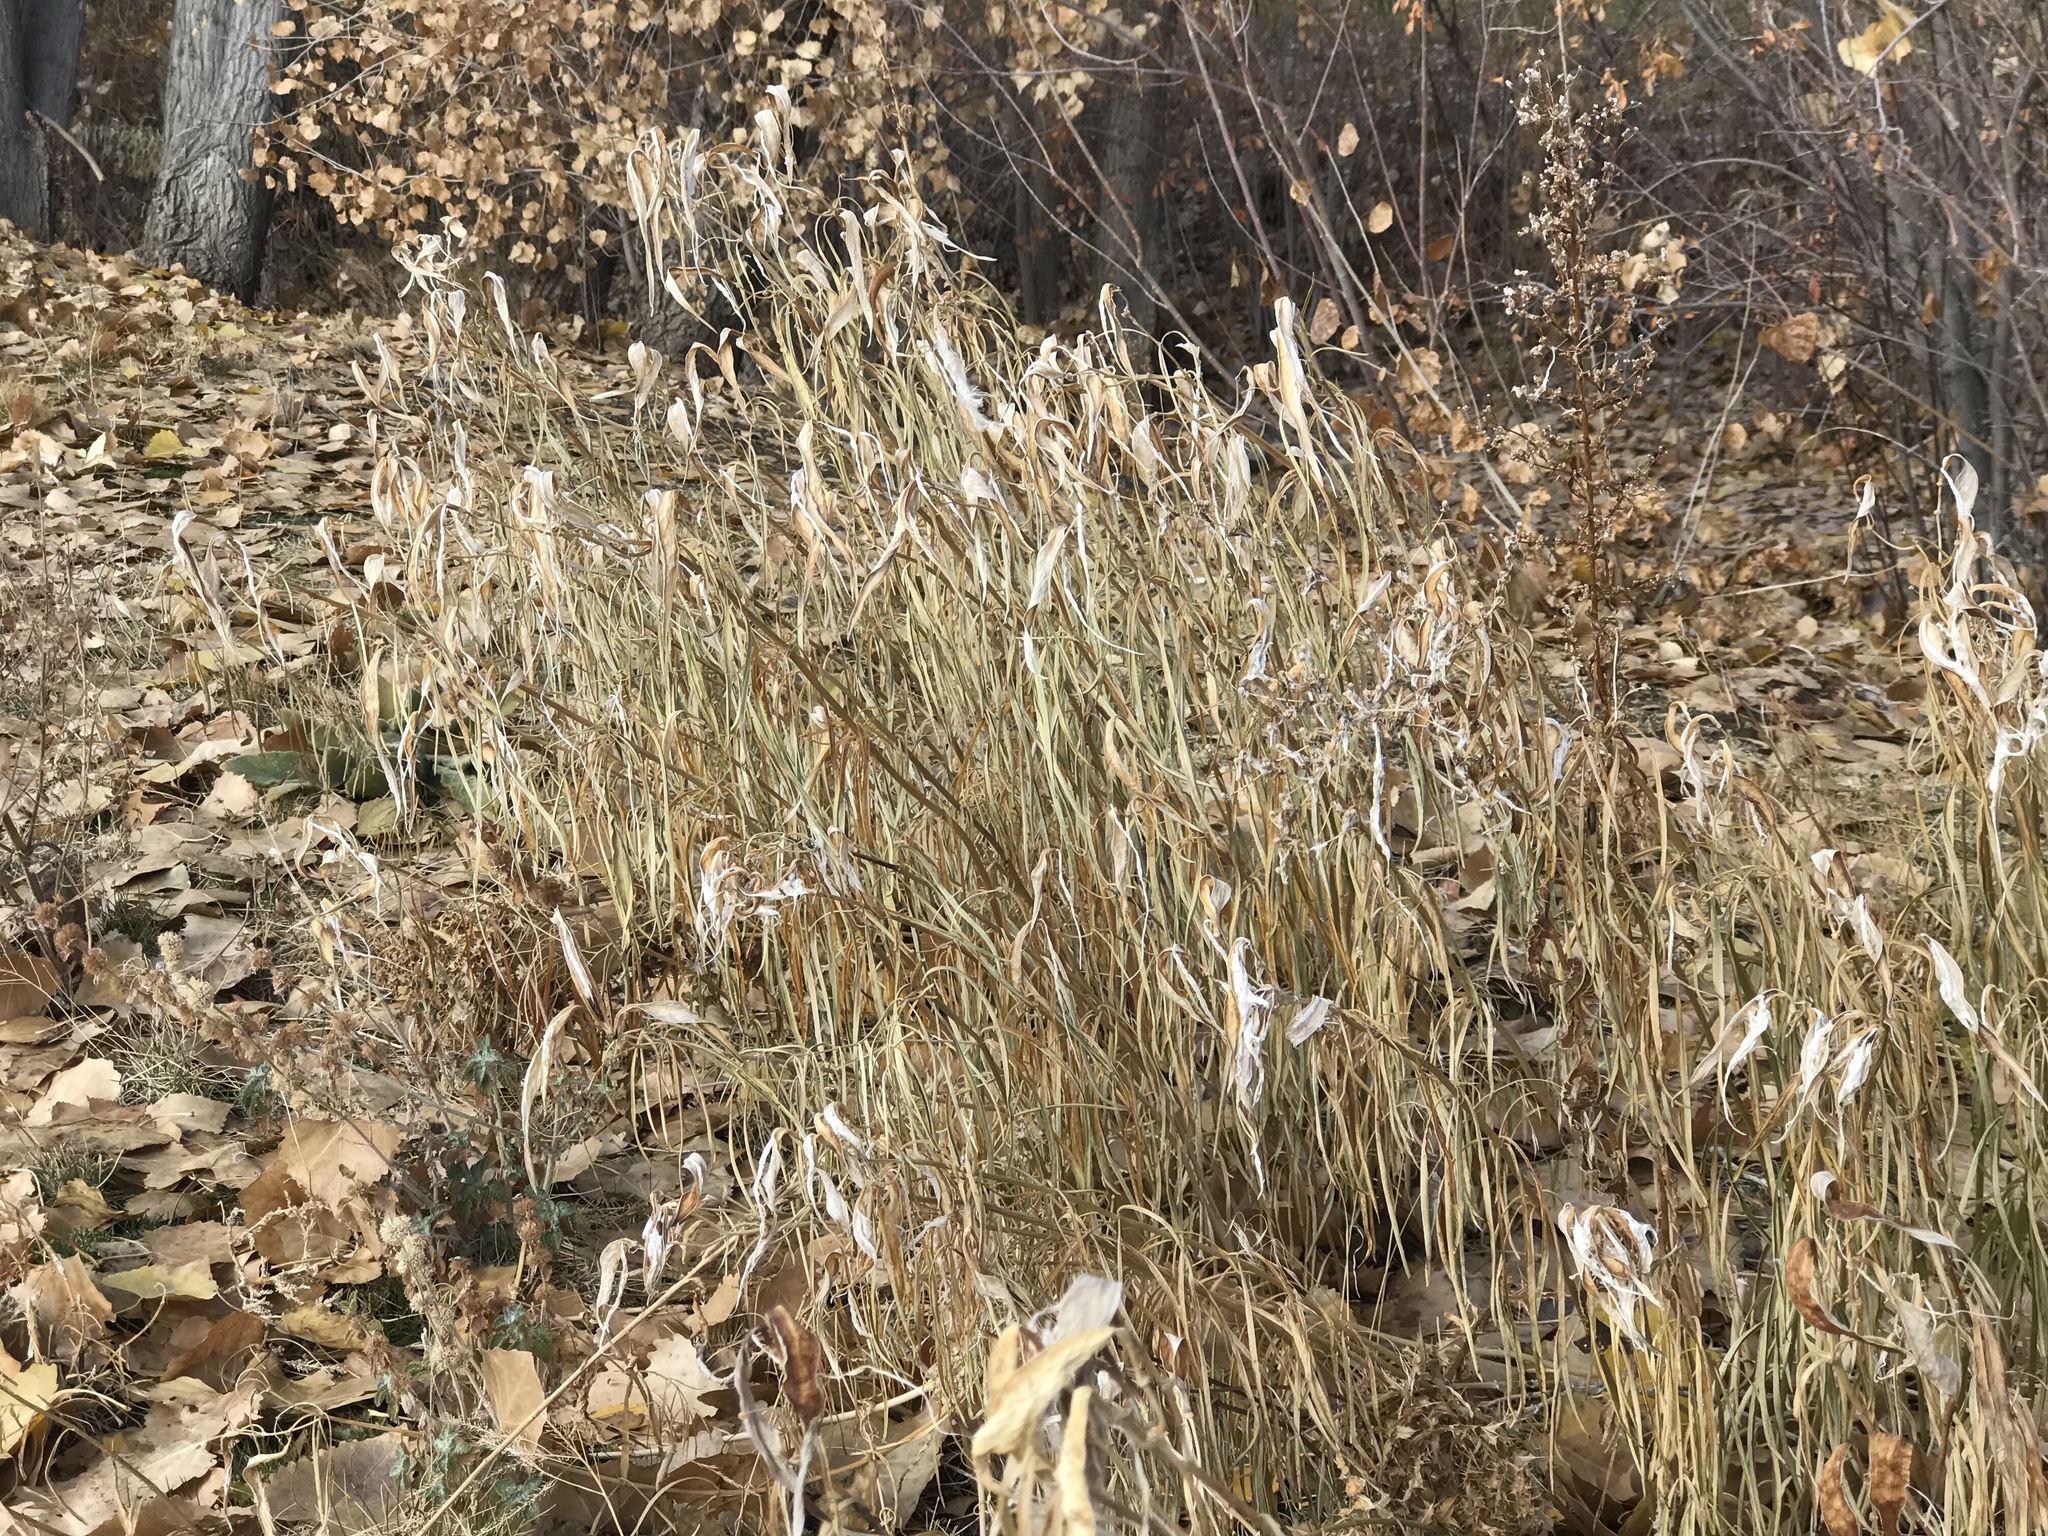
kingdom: Plantae
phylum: Tracheophyta
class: Magnoliopsida
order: Gentianales
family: Apocynaceae
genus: Asclepias
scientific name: Asclepias fascicularis
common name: Mexican milkweed
